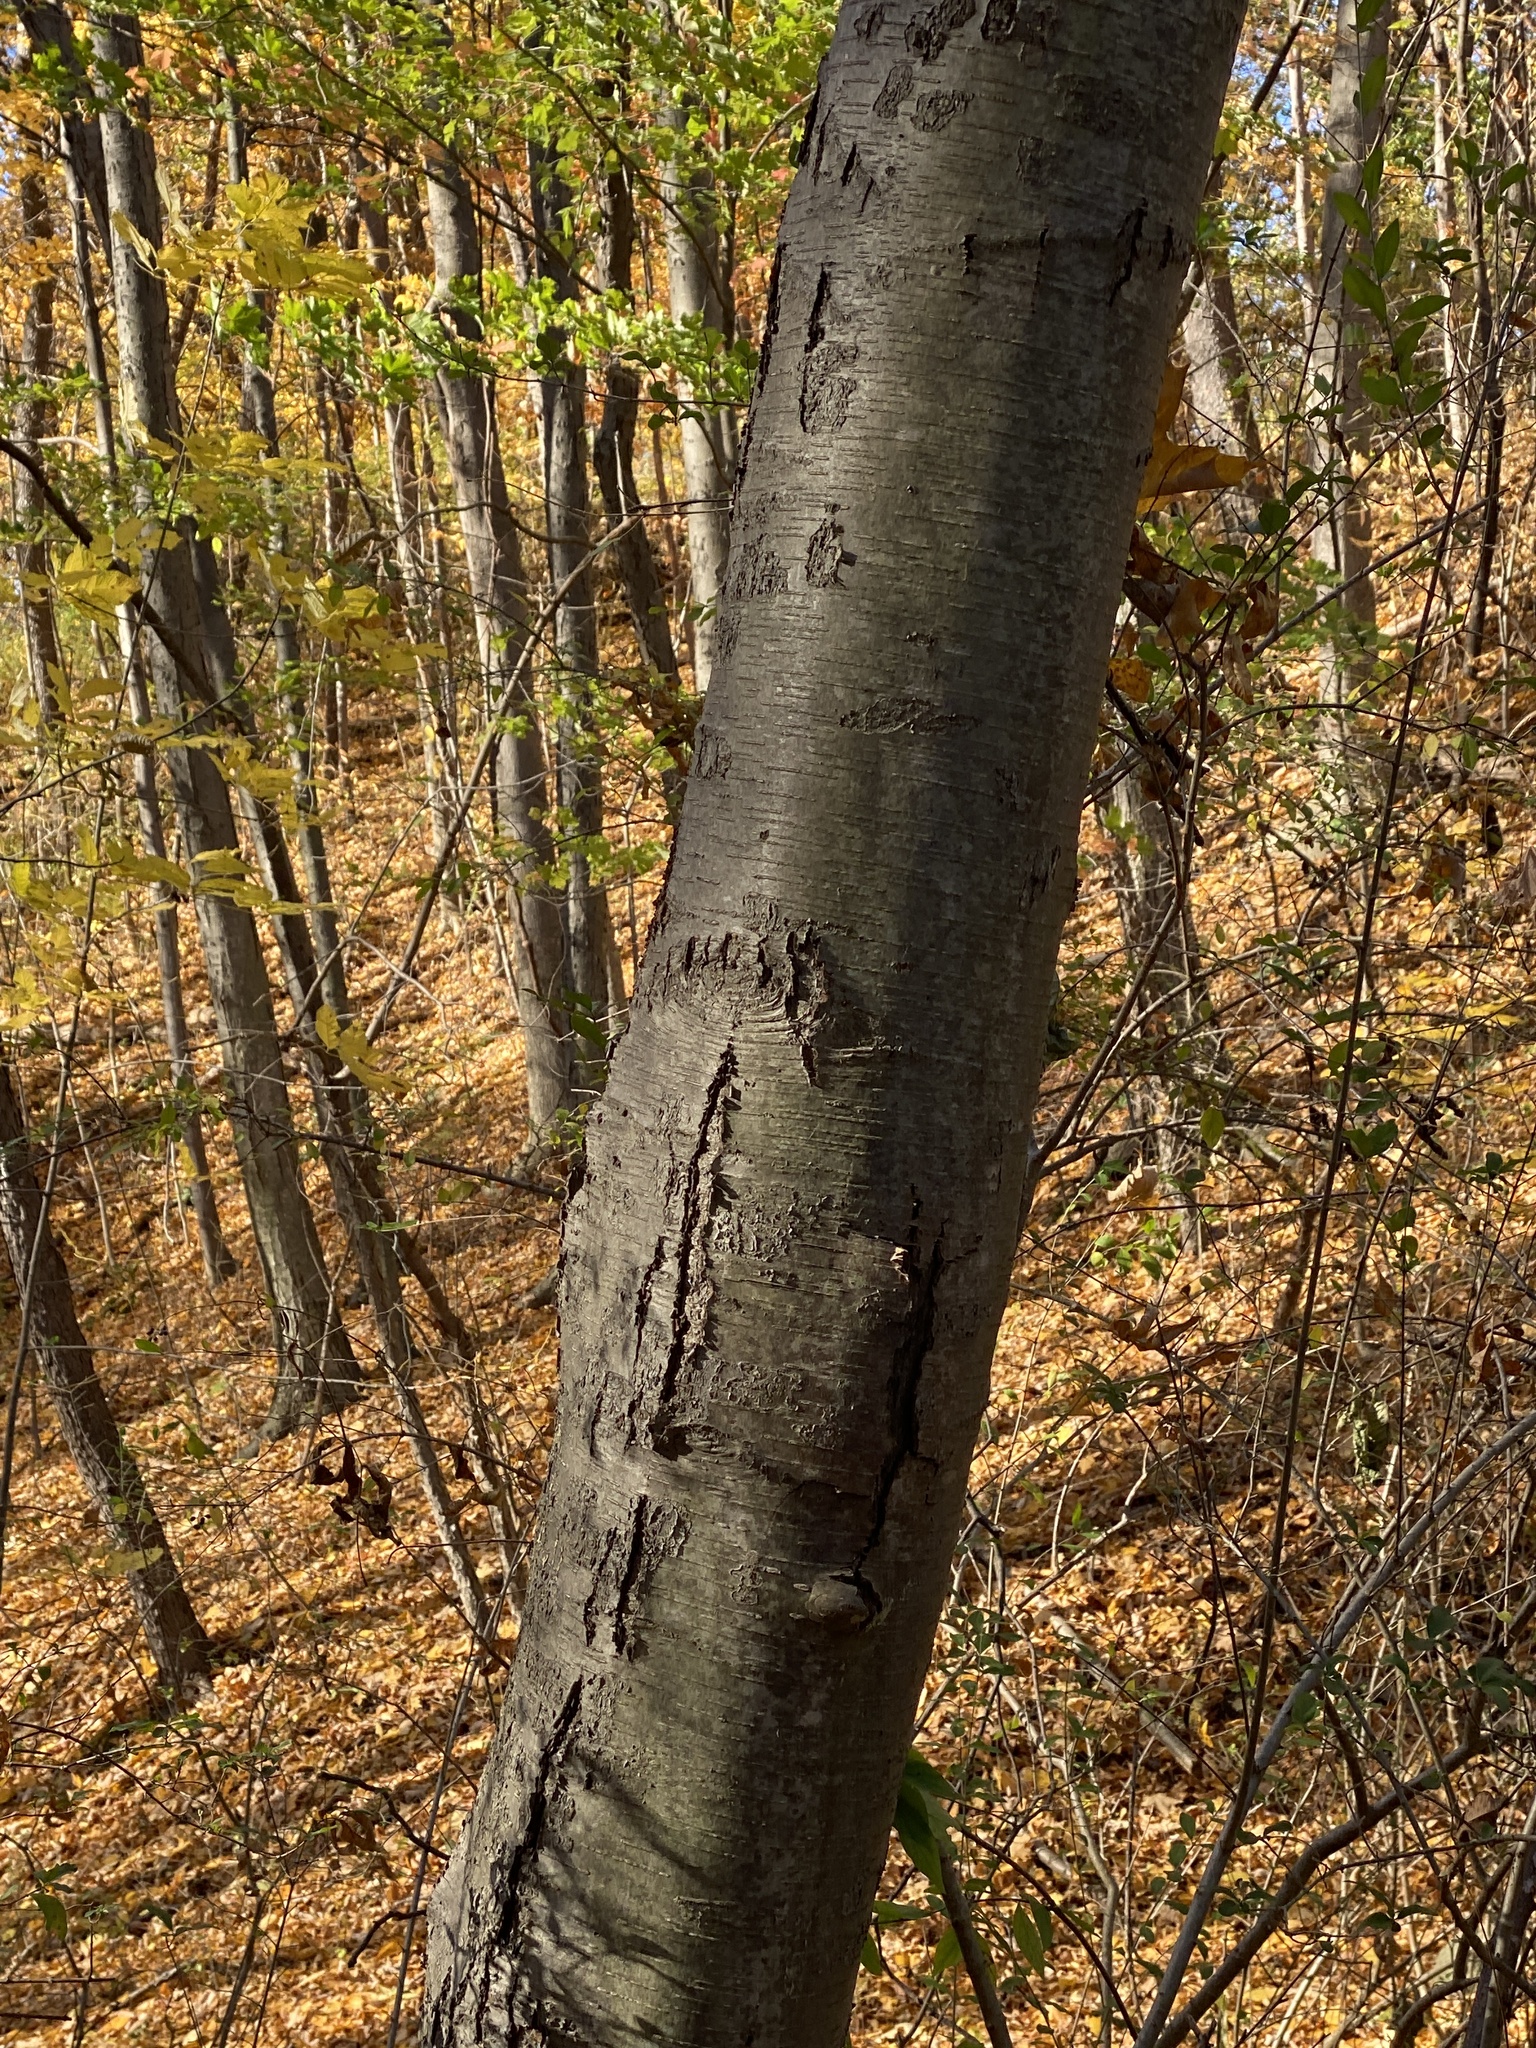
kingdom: Plantae
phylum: Tracheophyta
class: Magnoliopsida
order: Fagales
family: Betulaceae
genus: Betula
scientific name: Betula lenta
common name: Black birch
